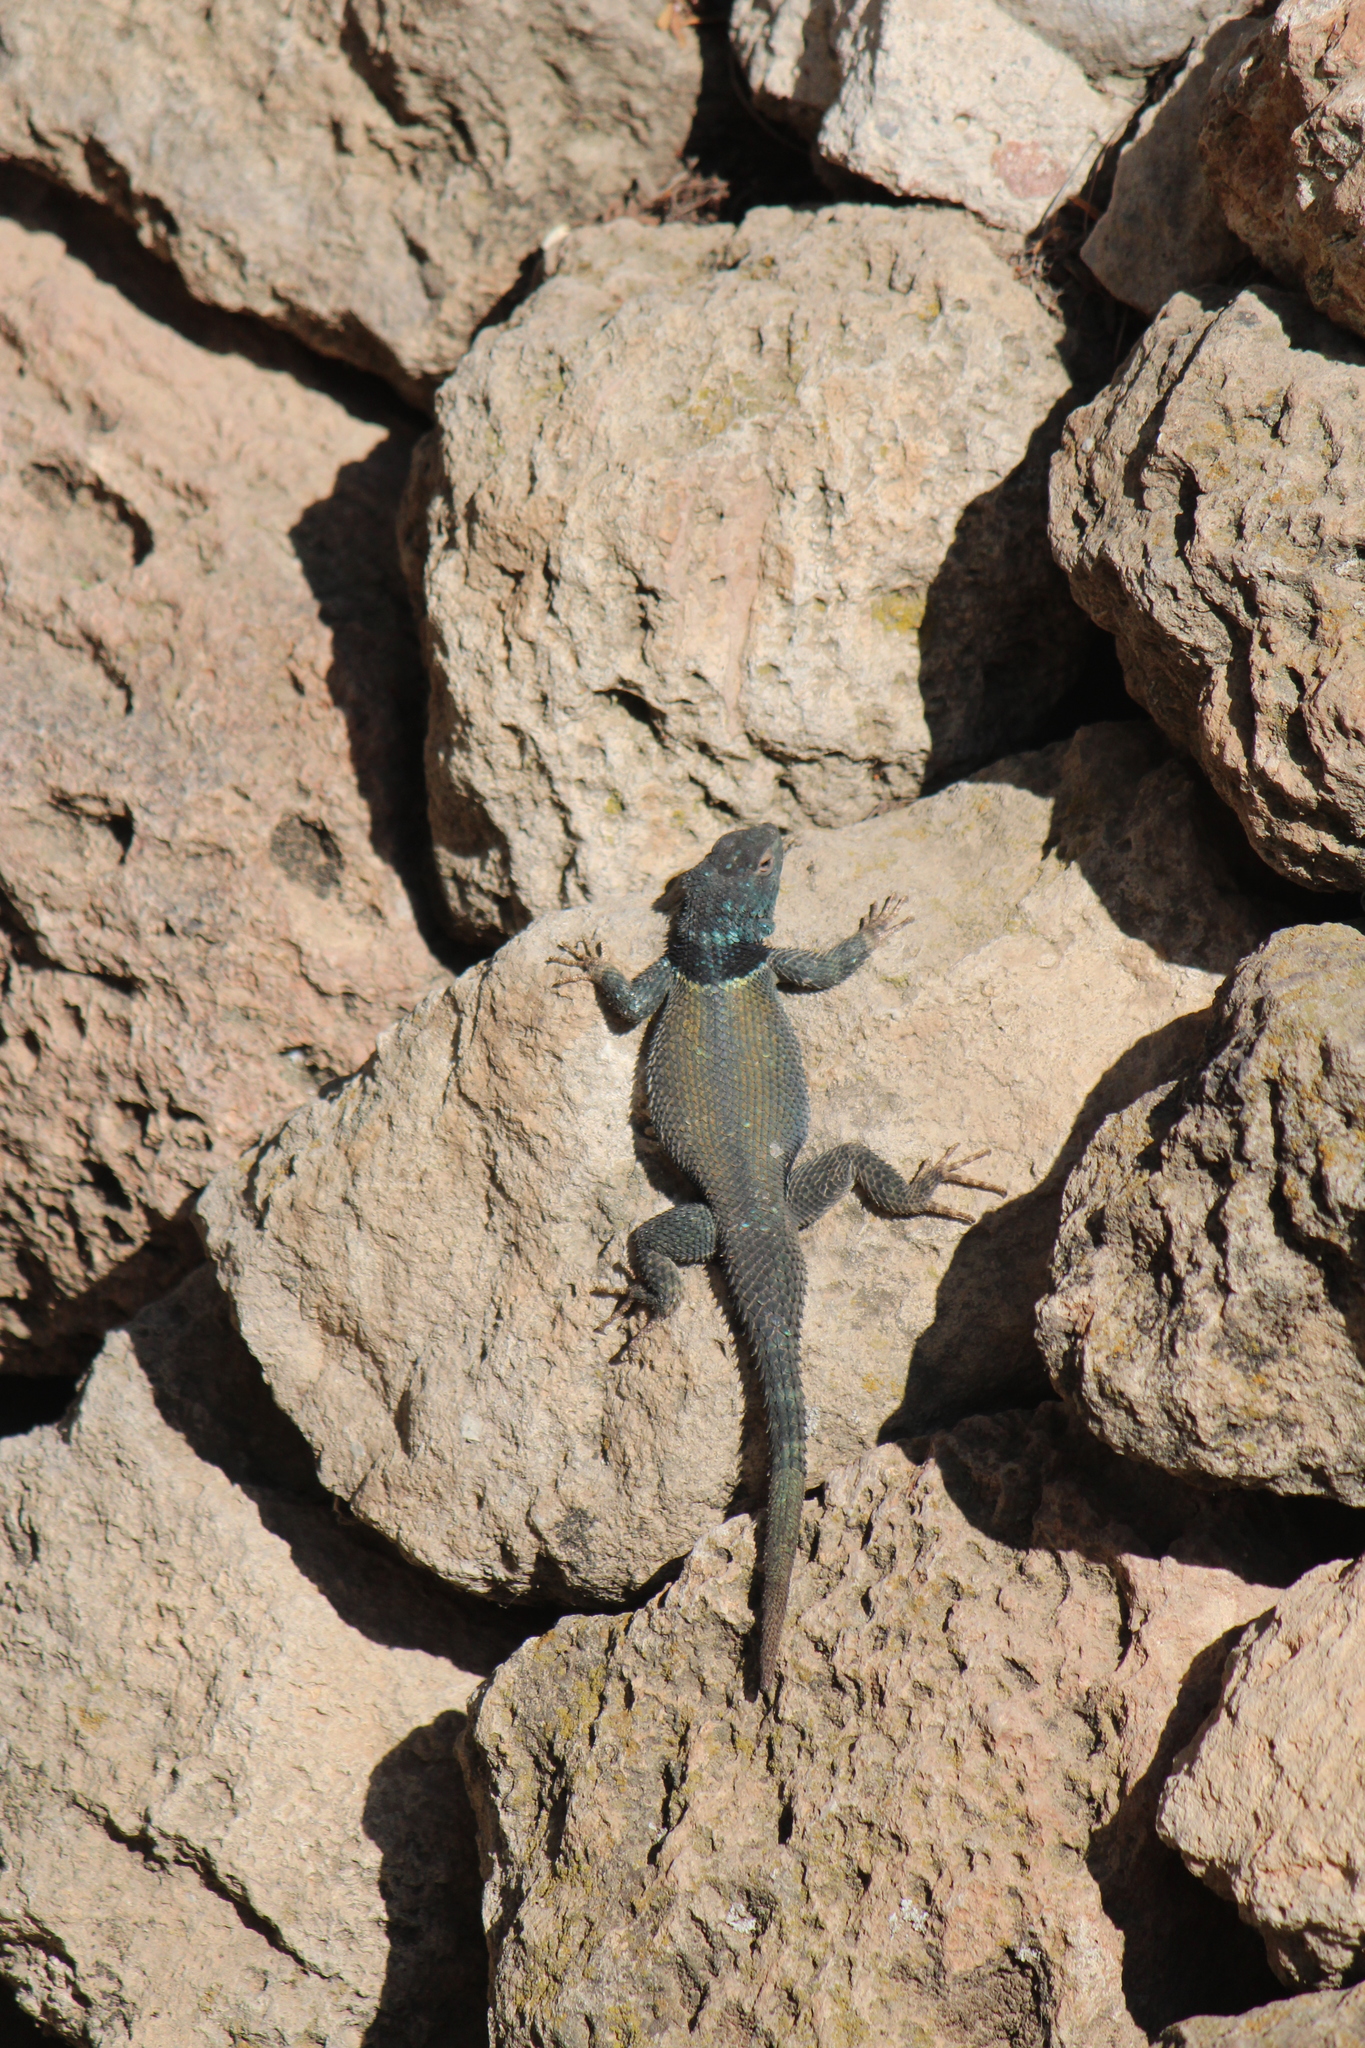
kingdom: Animalia
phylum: Chordata
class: Squamata
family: Phrynosomatidae
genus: Sceloporus
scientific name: Sceloporus minor
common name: Minor lizard
